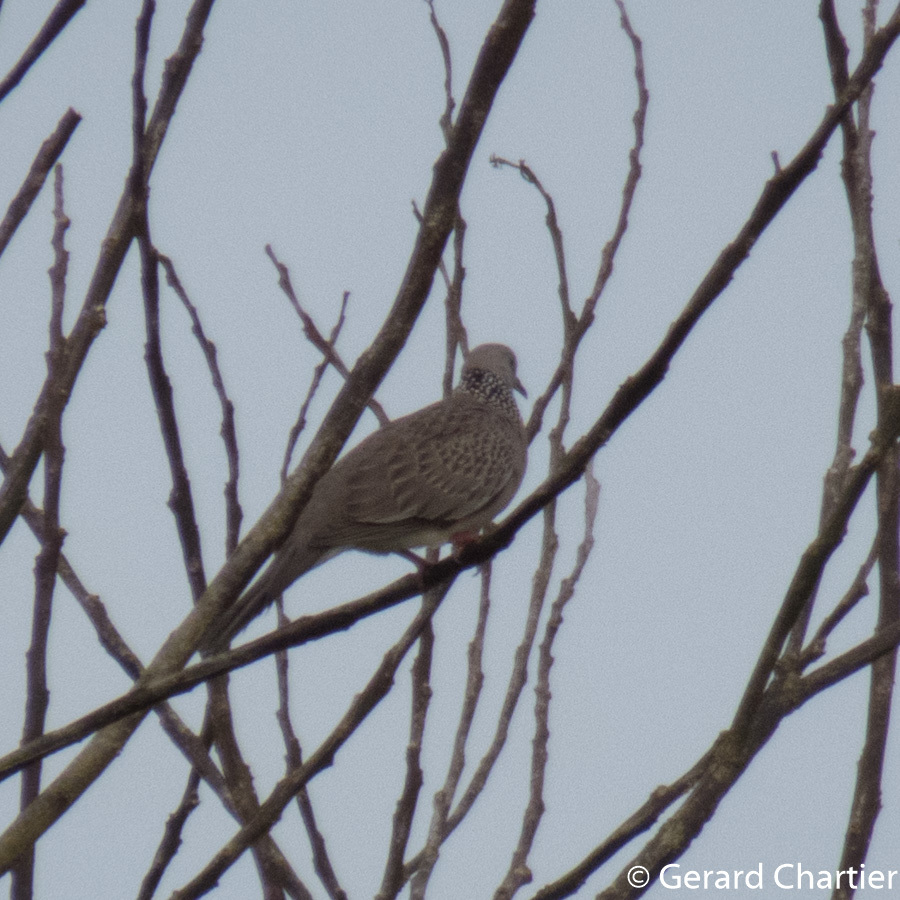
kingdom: Animalia
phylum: Chordata
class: Aves
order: Columbiformes
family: Columbidae
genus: Spilopelia
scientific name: Spilopelia chinensis
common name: Spotted dove
